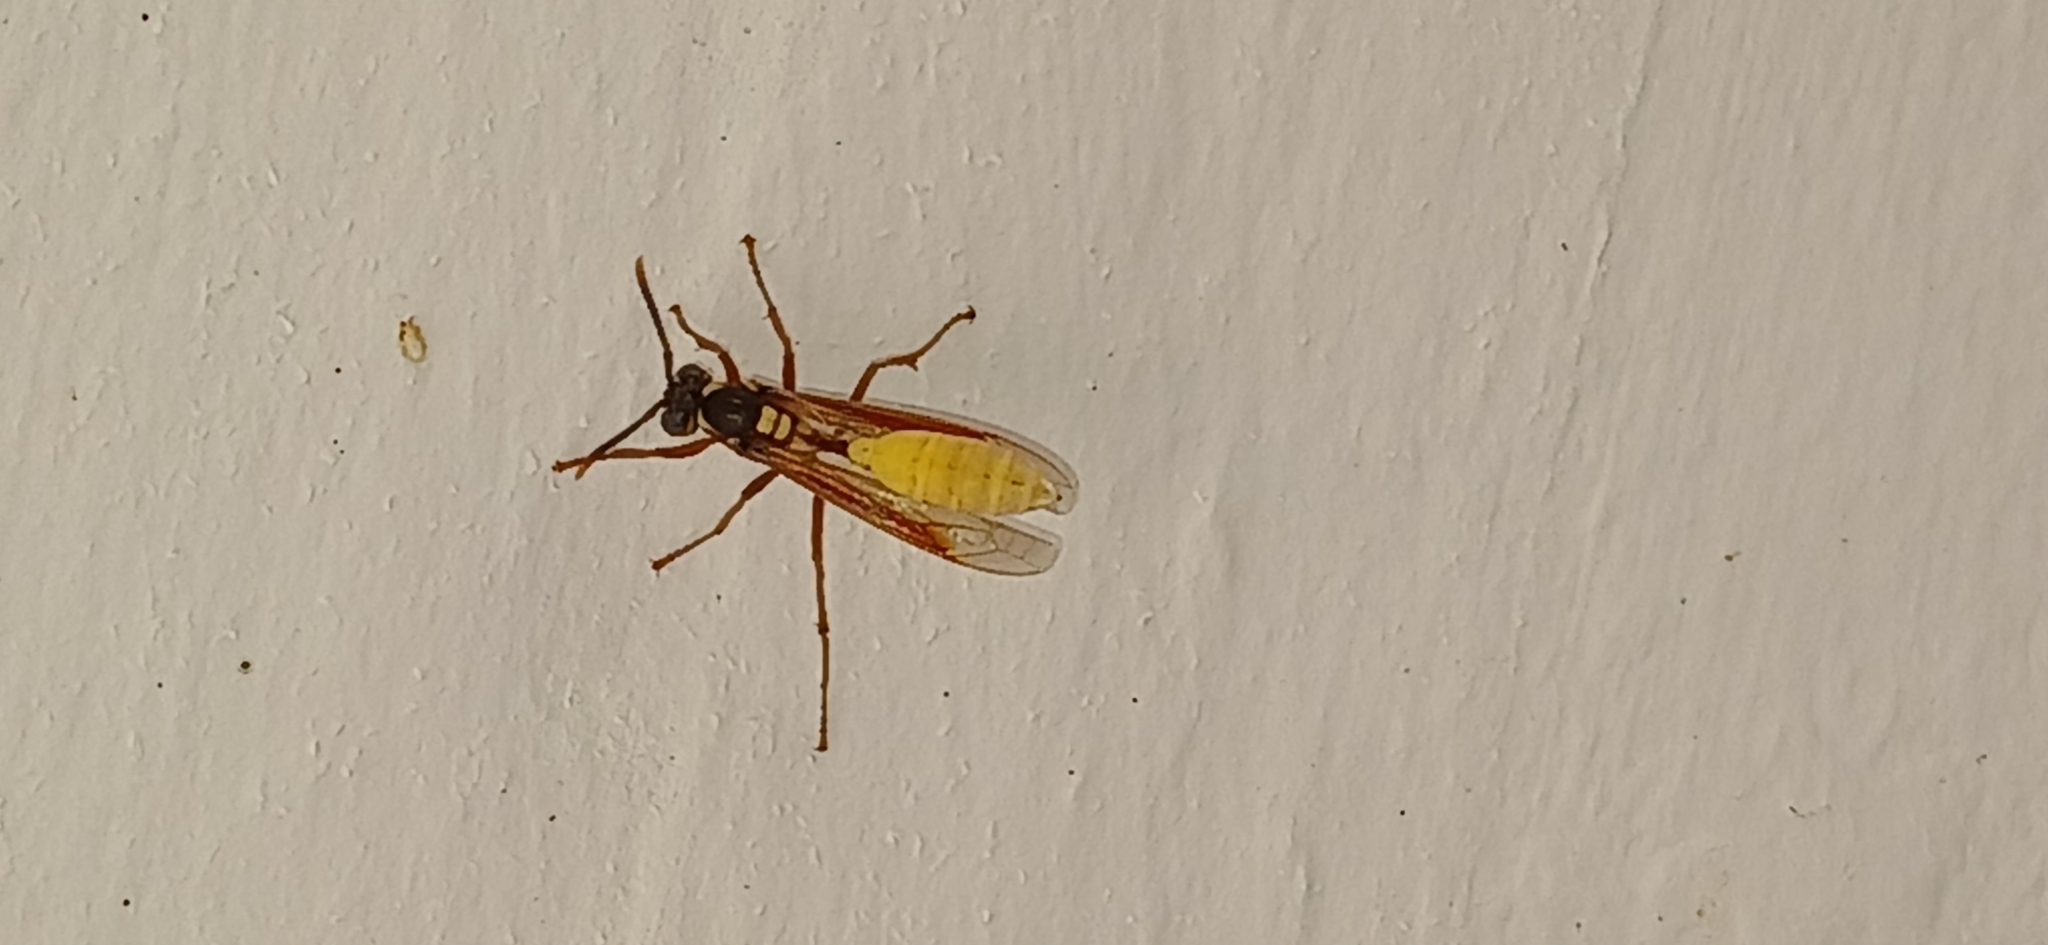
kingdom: Animalia
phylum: Arthropoda
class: Insecta
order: Hymenoptera
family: Vespidae
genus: Apoica
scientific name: Apoica pallens
